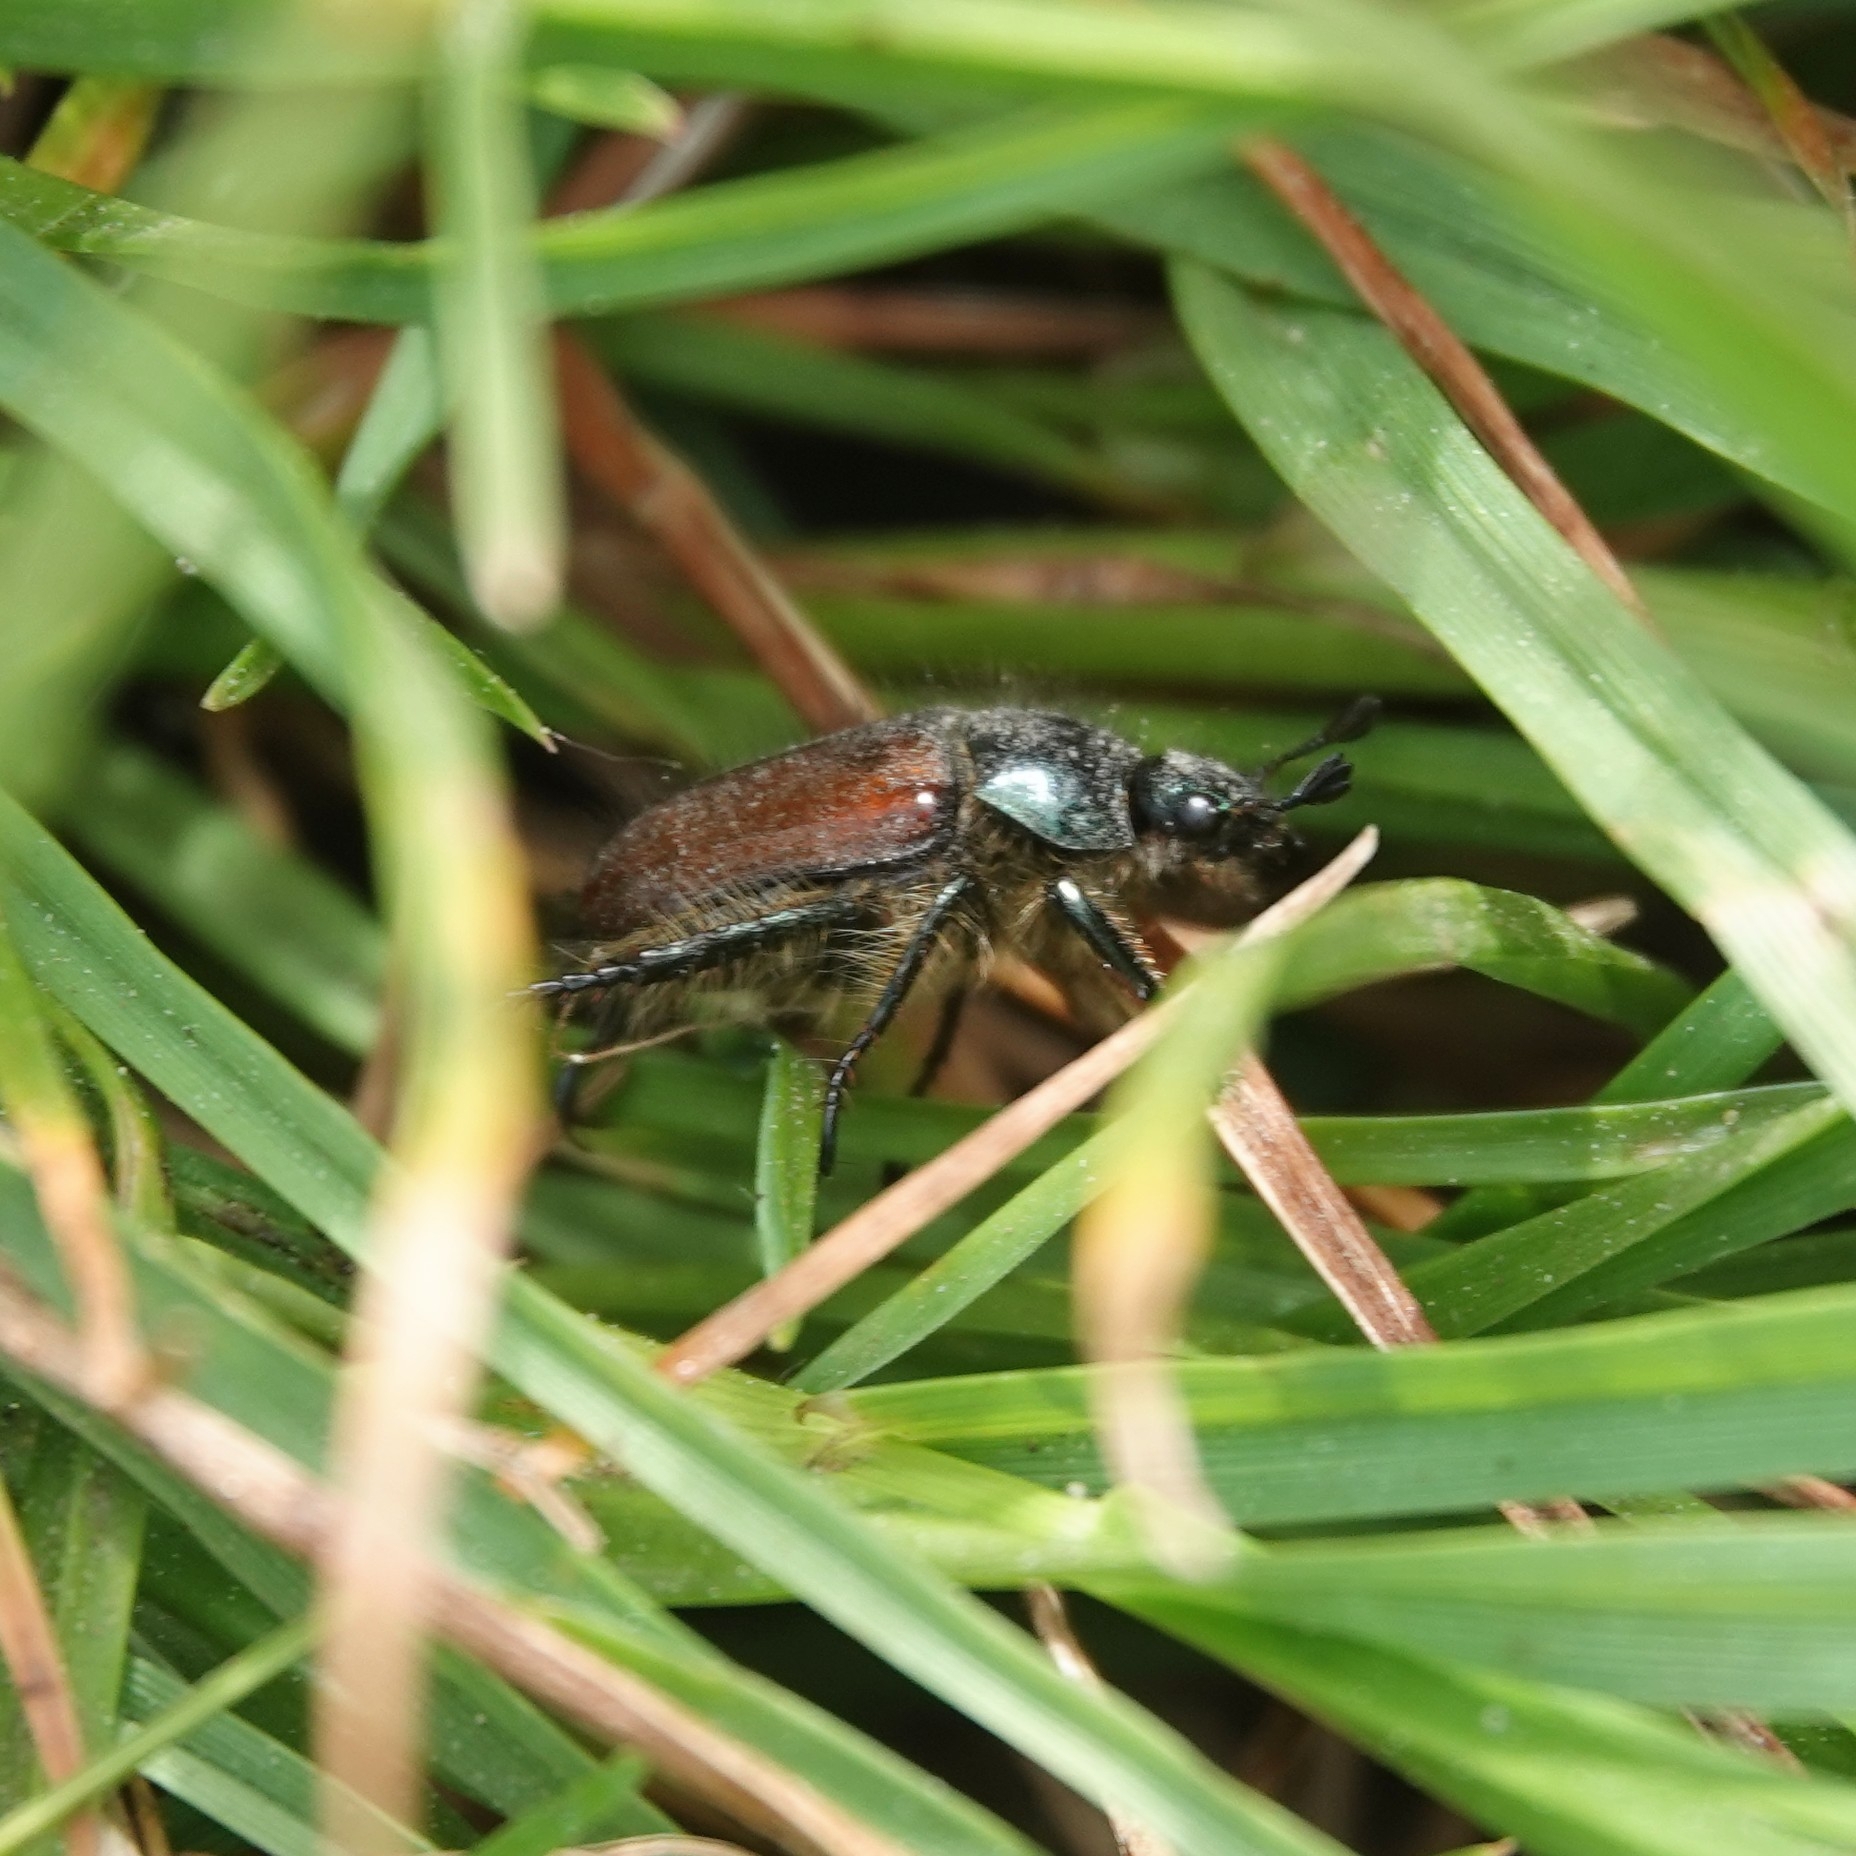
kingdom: Animalia
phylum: Arthropoda
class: Insecta
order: Coleoptera
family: Scarabaeidae
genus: Phyllopertha
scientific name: Phyllopertha horticola
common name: Garden chafer
